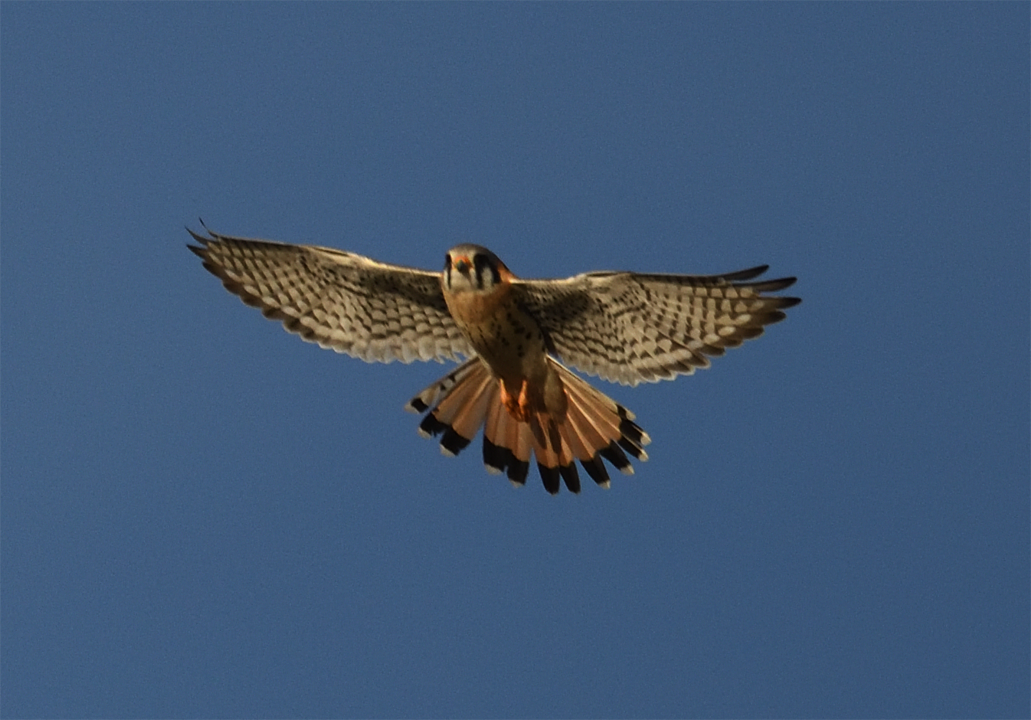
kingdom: Animalia
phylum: Chordata
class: Aves
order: Falconiformes
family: Falconidae
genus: Falco
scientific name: Falco sparverius
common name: American kestrel
